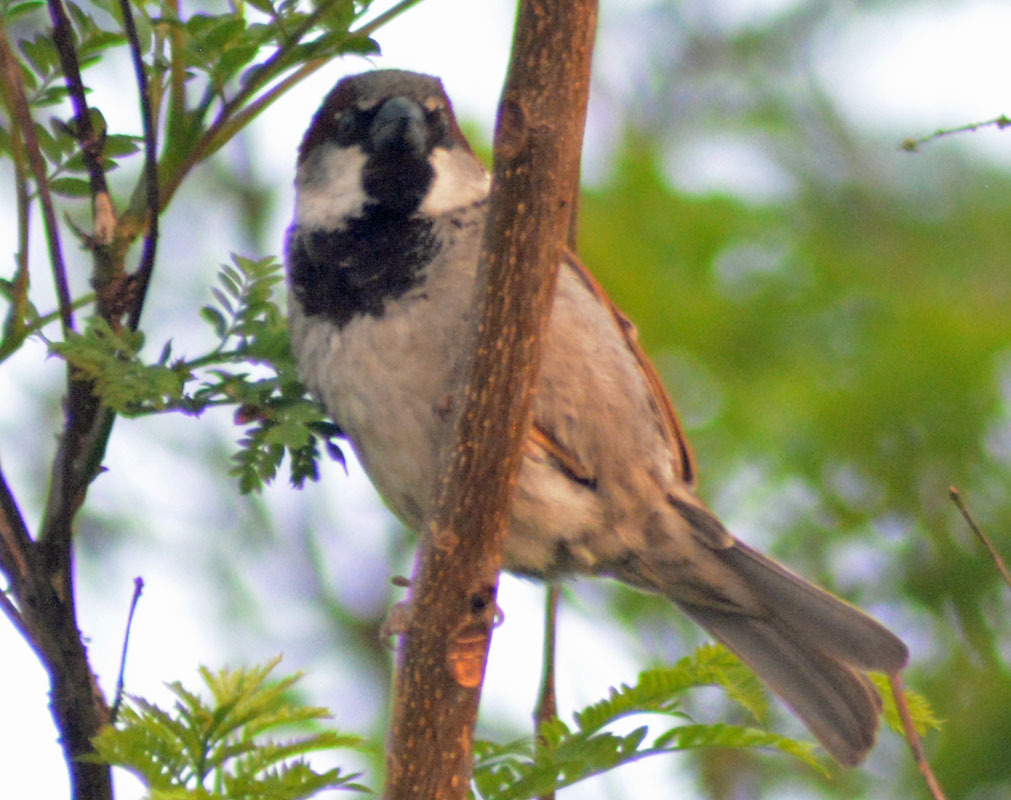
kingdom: Animalia
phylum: Chordata
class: Aves
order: Passeriformes
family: Passeridae
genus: Passer
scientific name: Passer domesticus
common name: House sparrow
